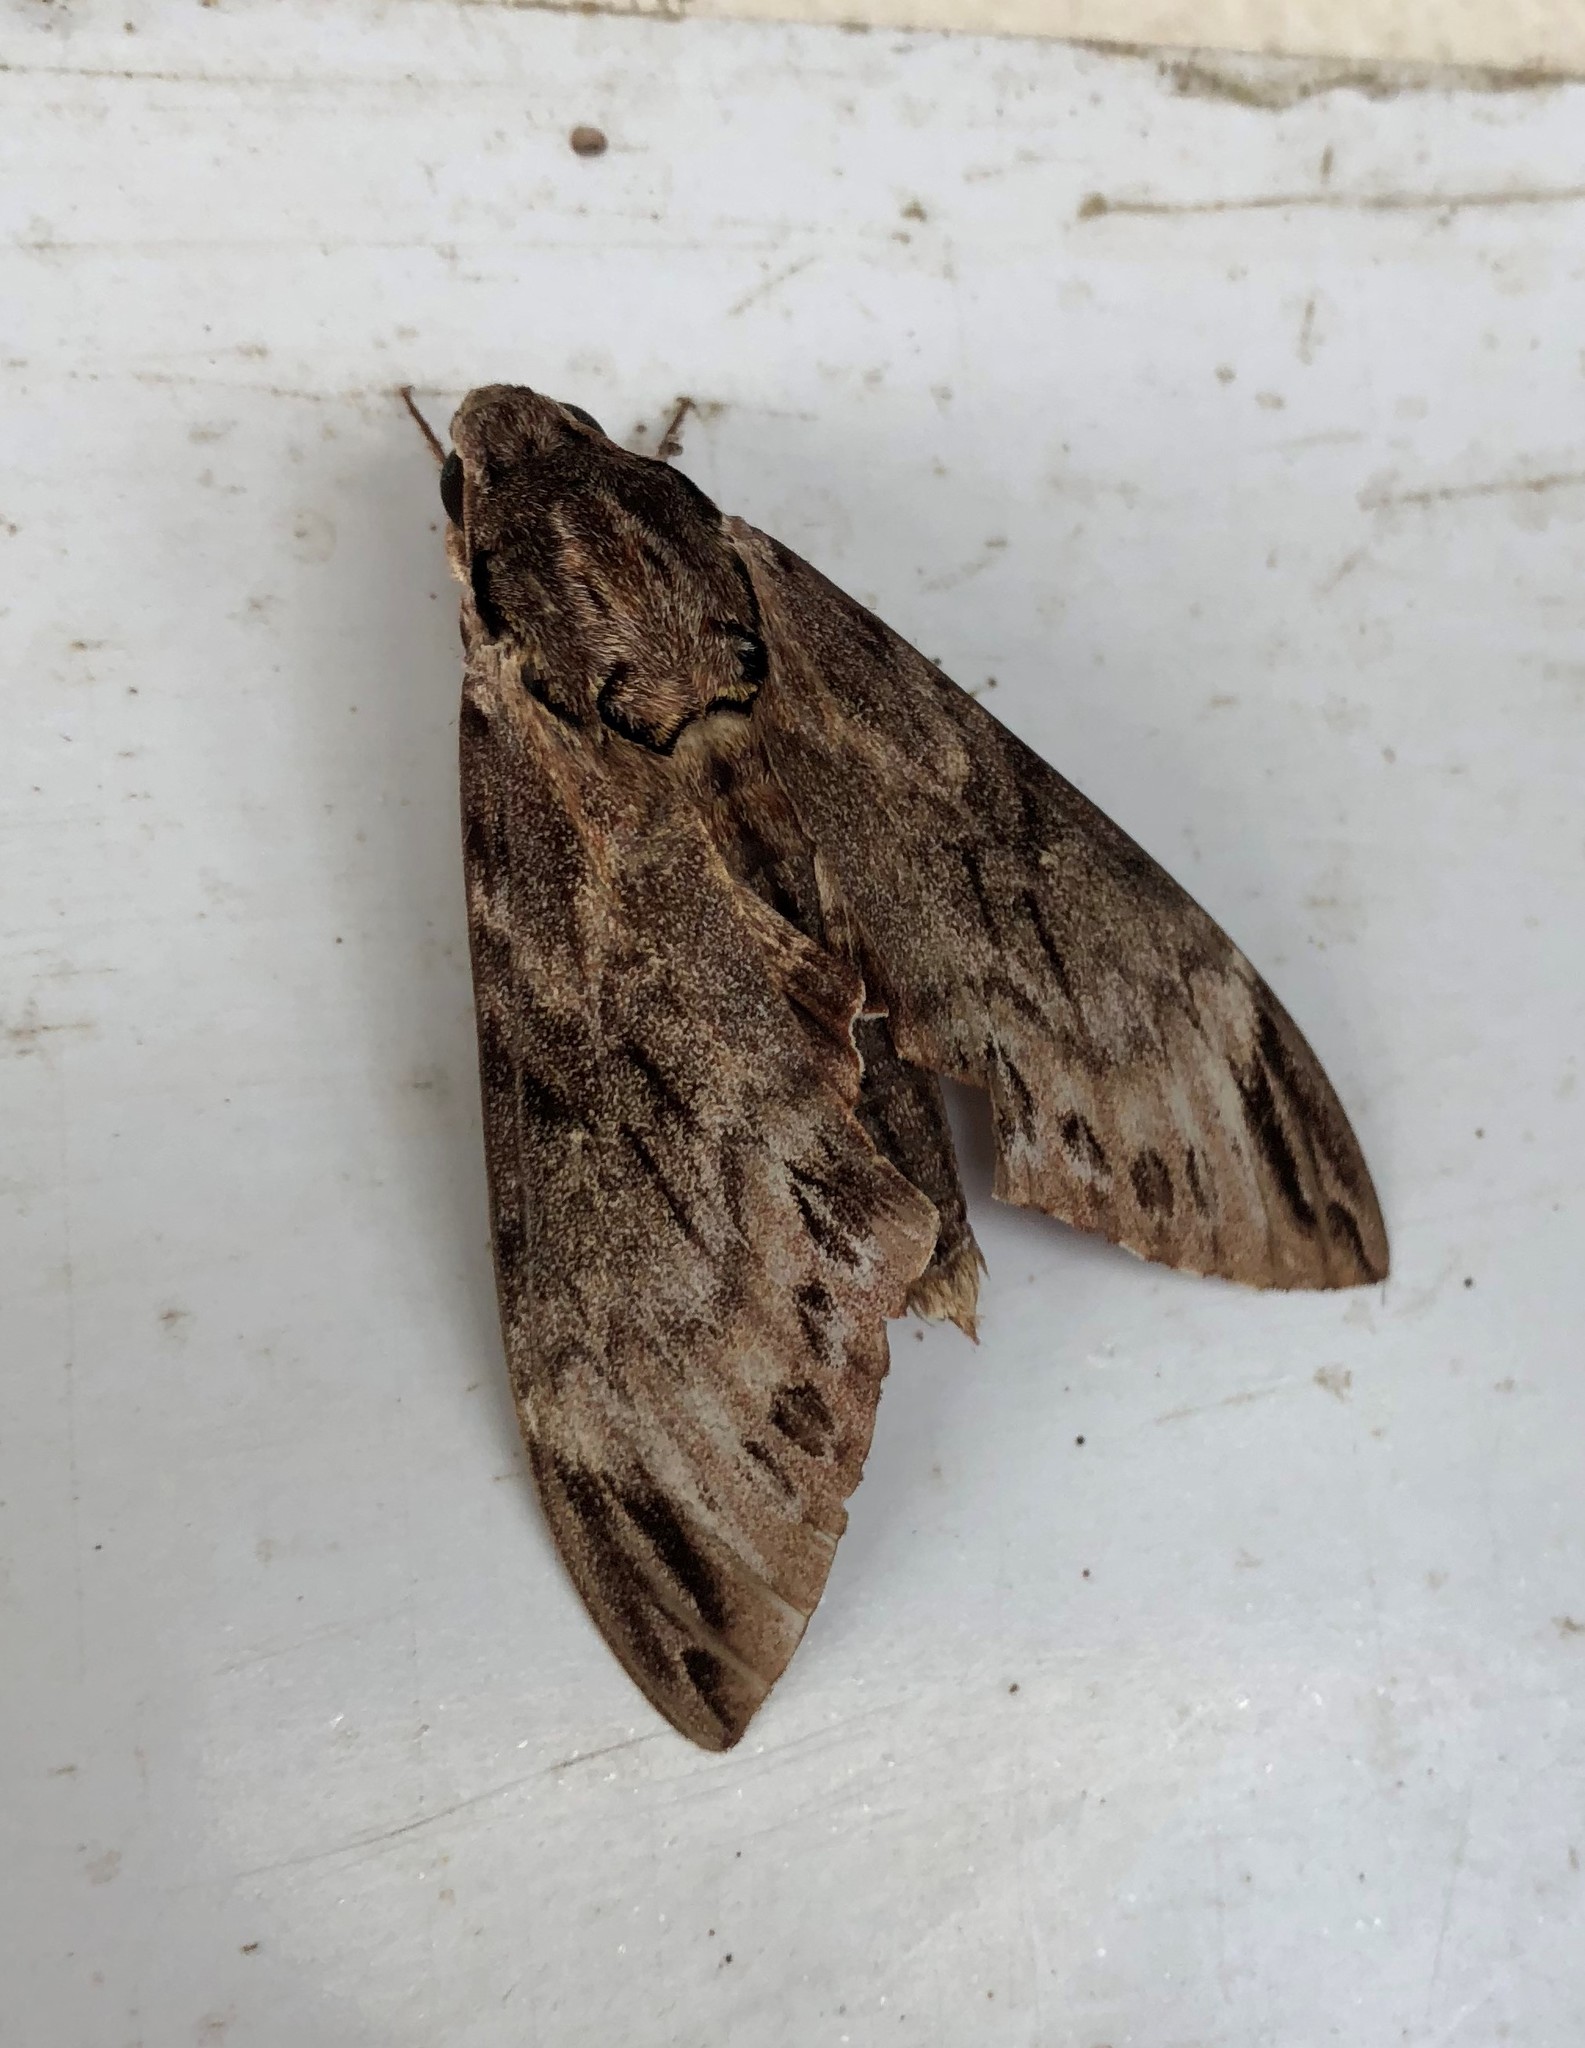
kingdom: Animalia
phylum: Arthropoda
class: Insecta
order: Lepidoptera
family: Sphingidae
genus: Psilogramma
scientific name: Psilogramma rupprechtorum
